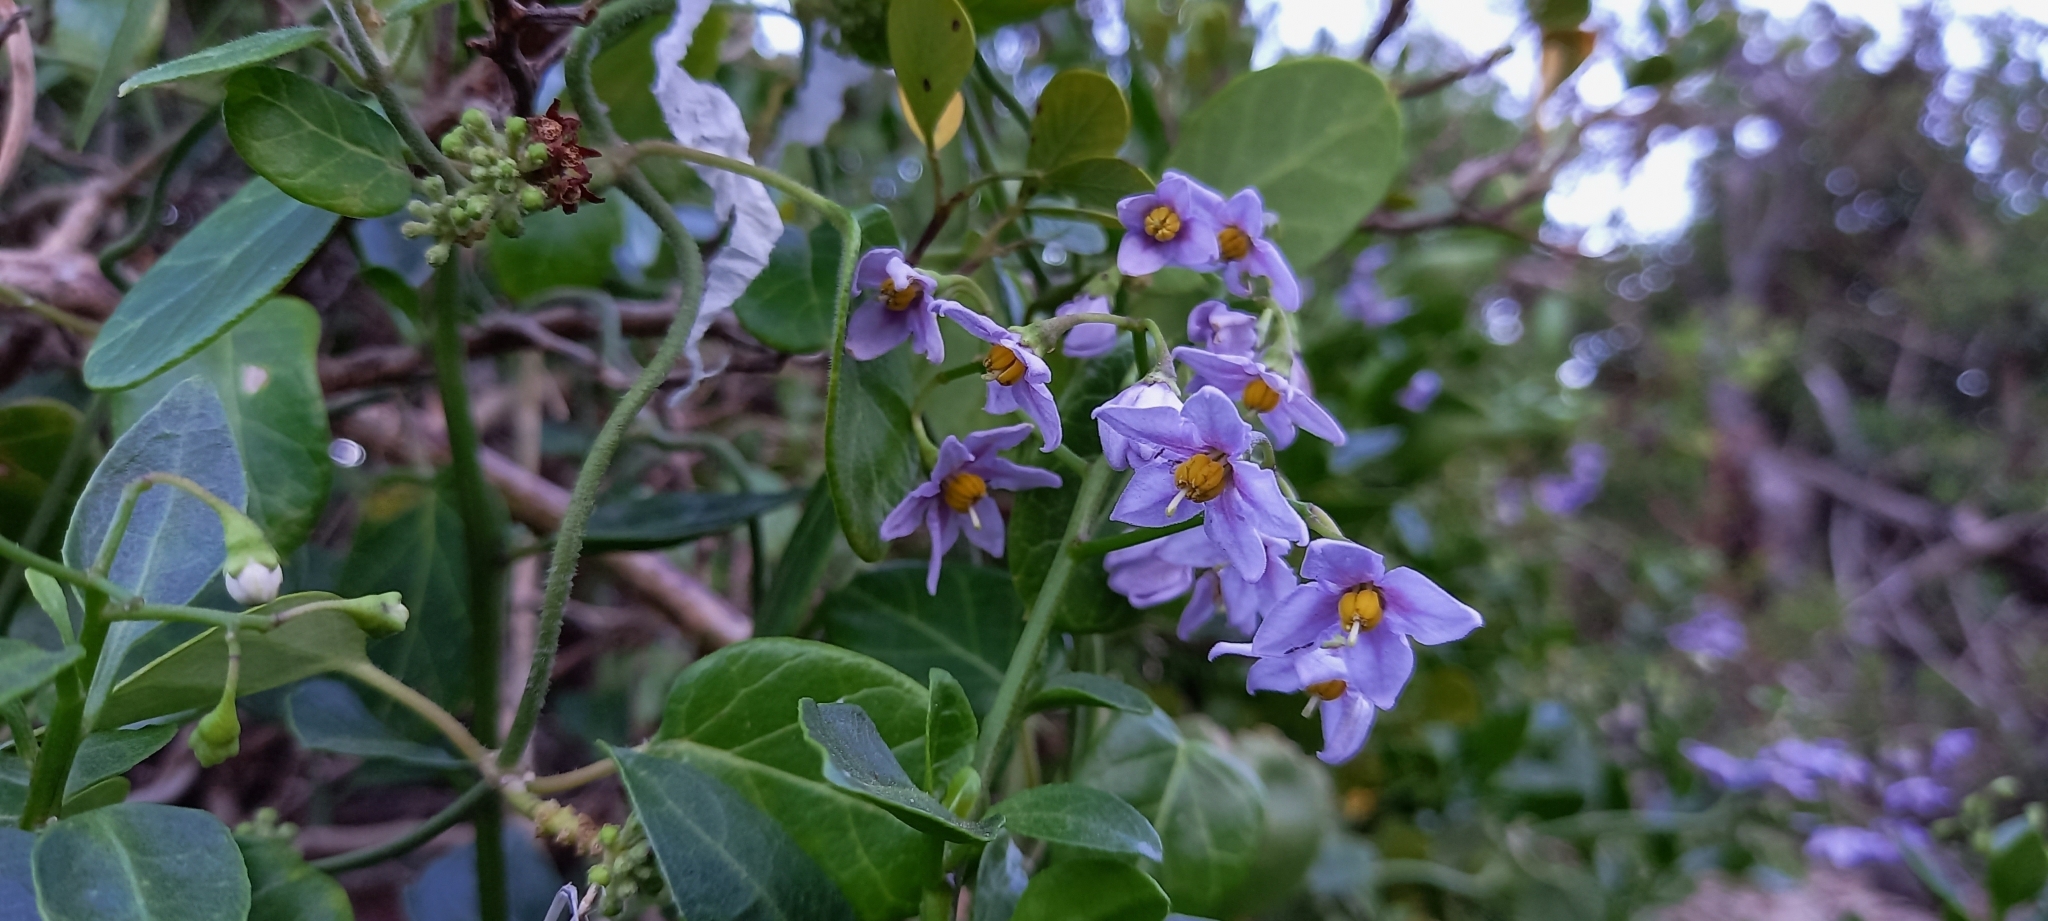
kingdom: Plantae
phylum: Tracheophyta
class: Magnoliopsida
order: Solanales
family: Solanaceae
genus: Solanum
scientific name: Solanum africanum
